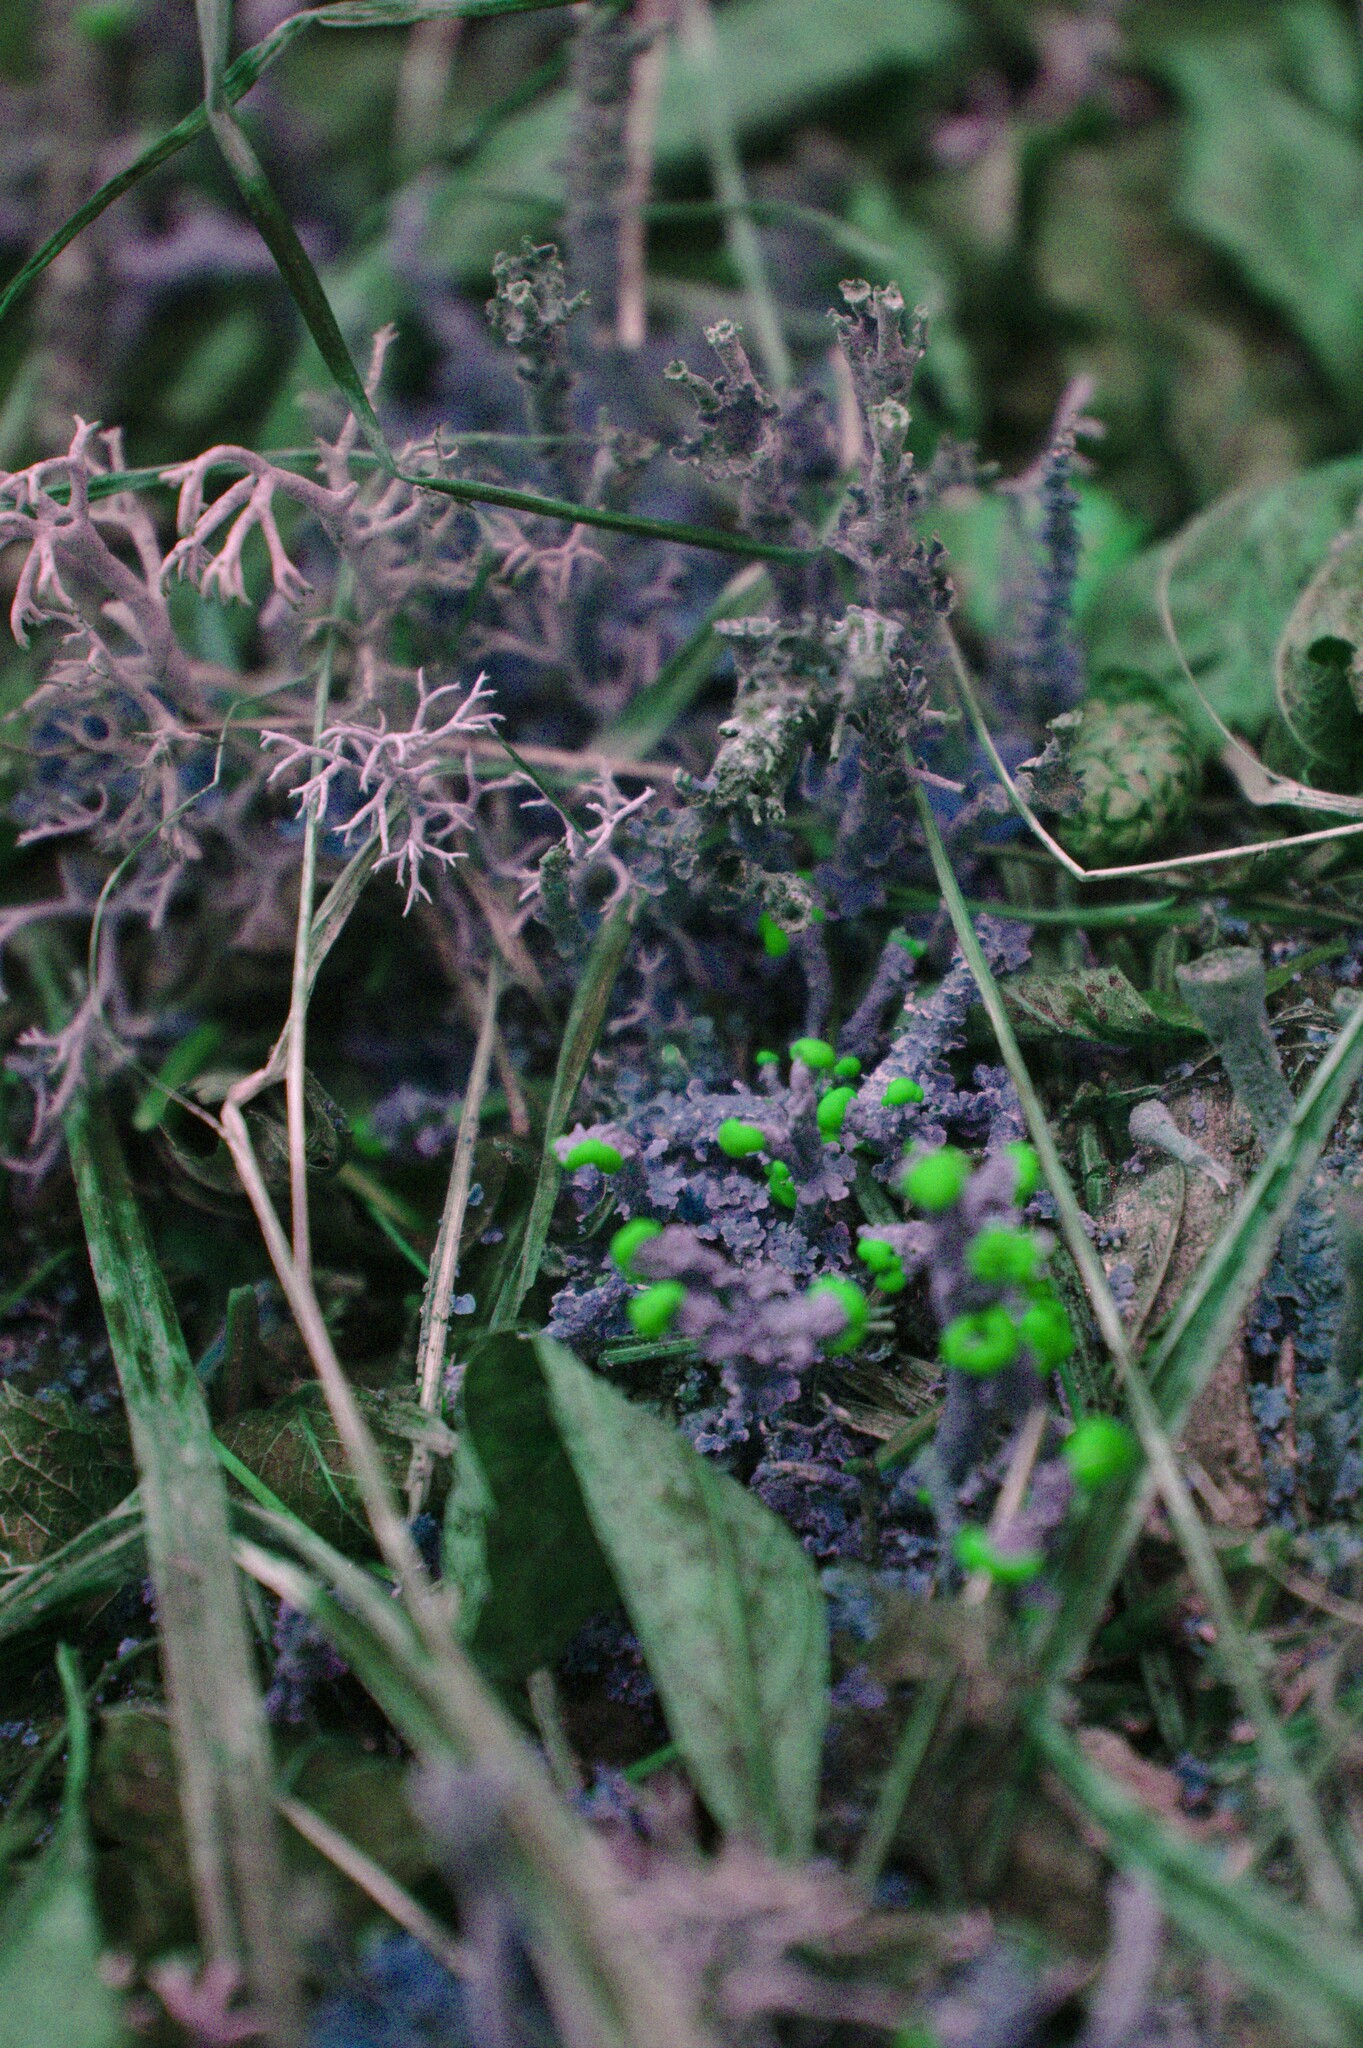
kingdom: Fungi
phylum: Ascomycota
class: Lecanoromycetes
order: Lecanorales
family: Cladoniaceae
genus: Cladonia
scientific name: Cladonia cristatella
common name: British soldier lichen
